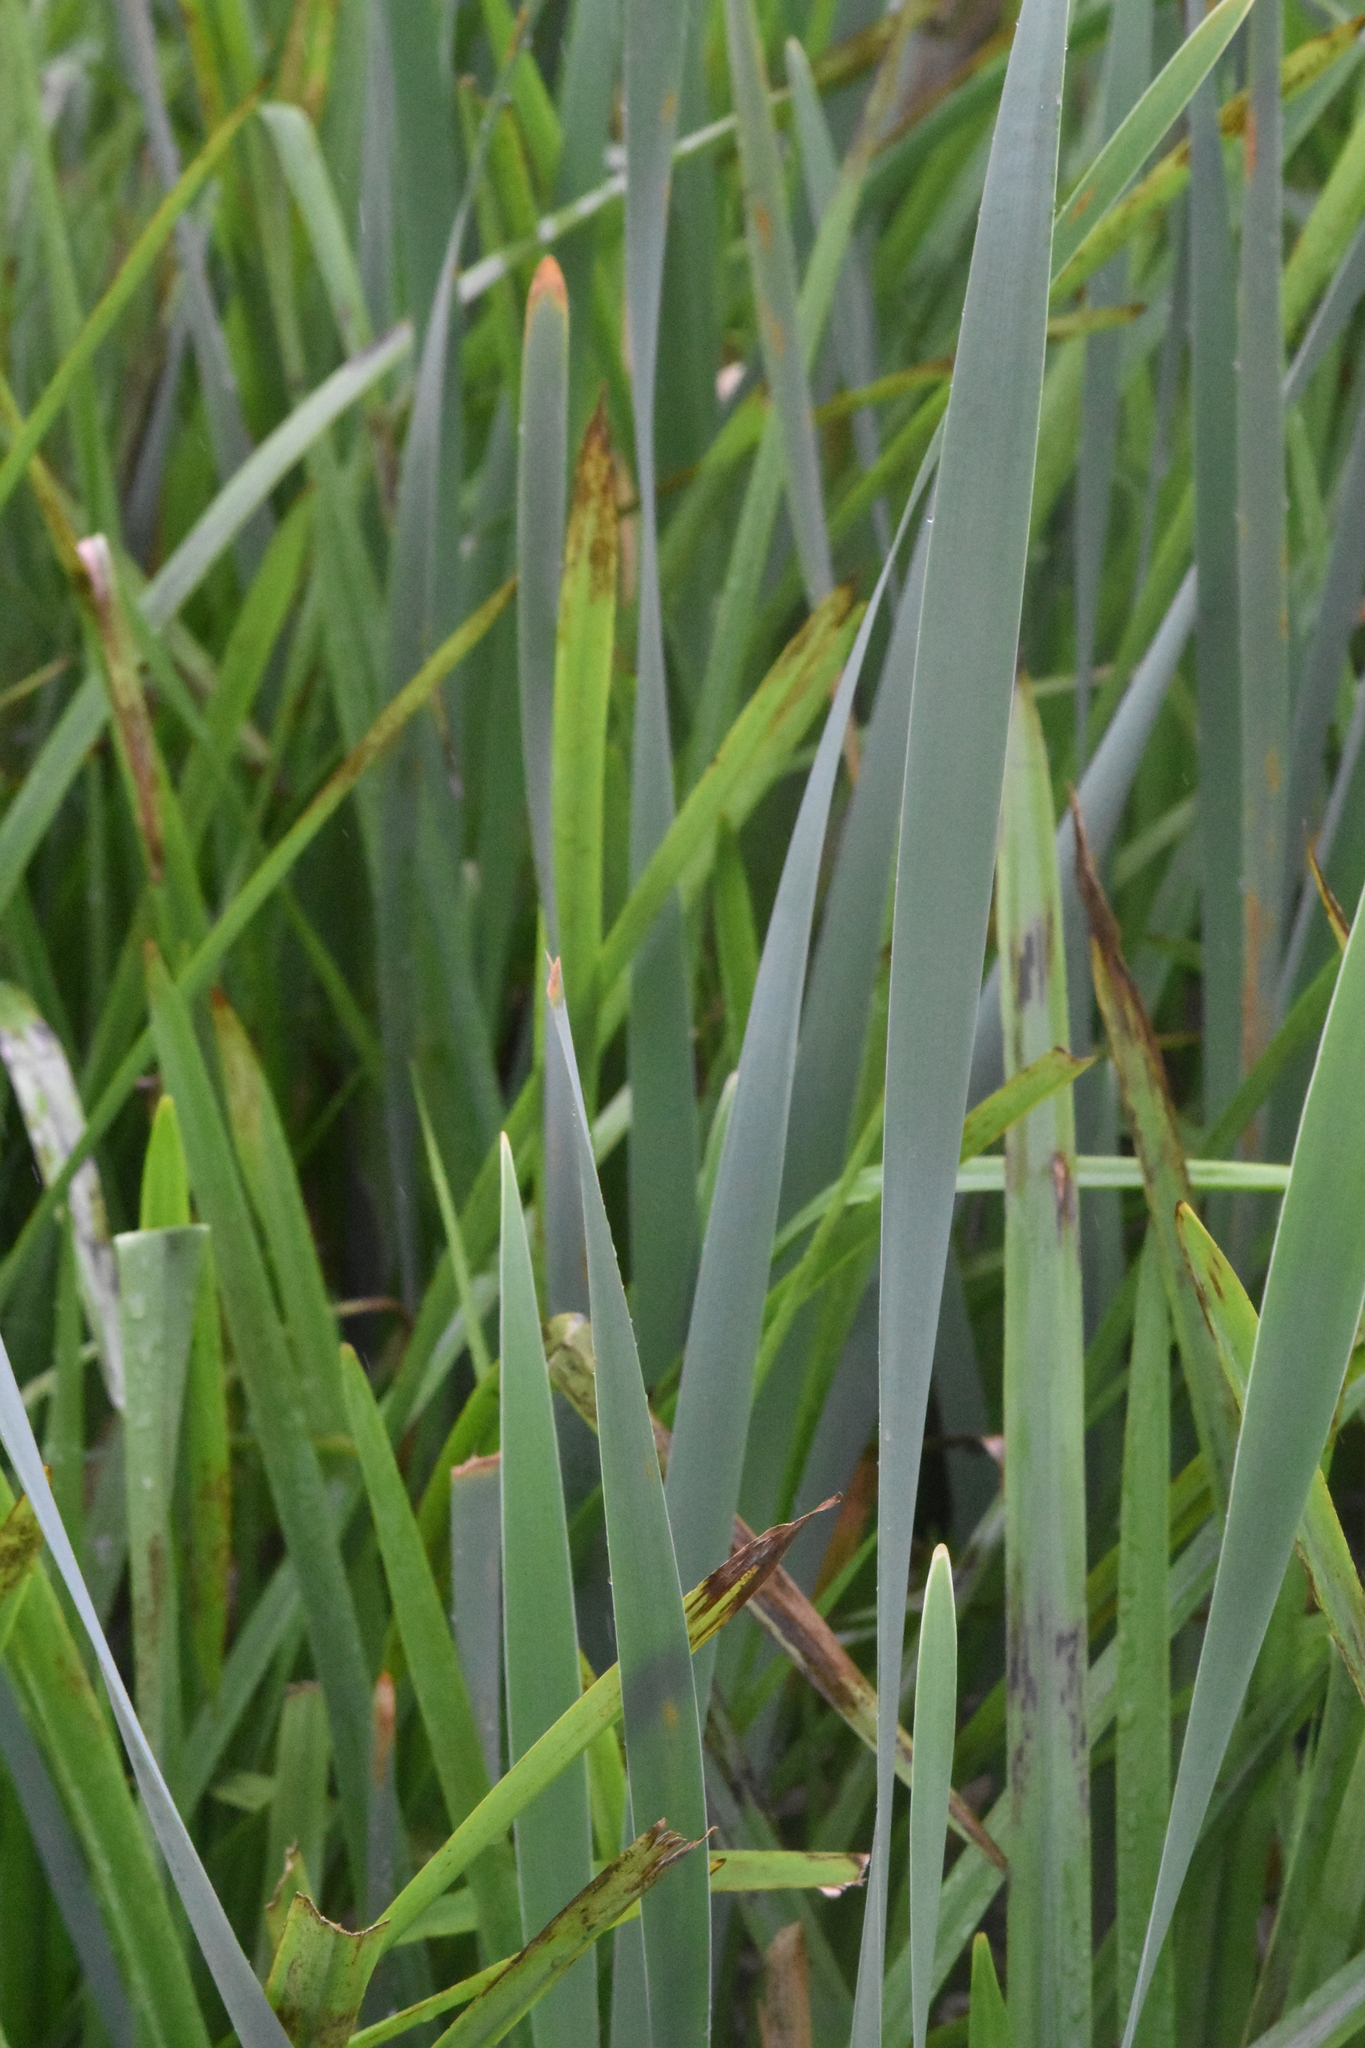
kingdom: Plantae
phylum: Tracheophyta
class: Liliopsida
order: Poales
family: Typhaceae
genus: Typha
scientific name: Typha latifolia
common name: Broadleaf cattail
